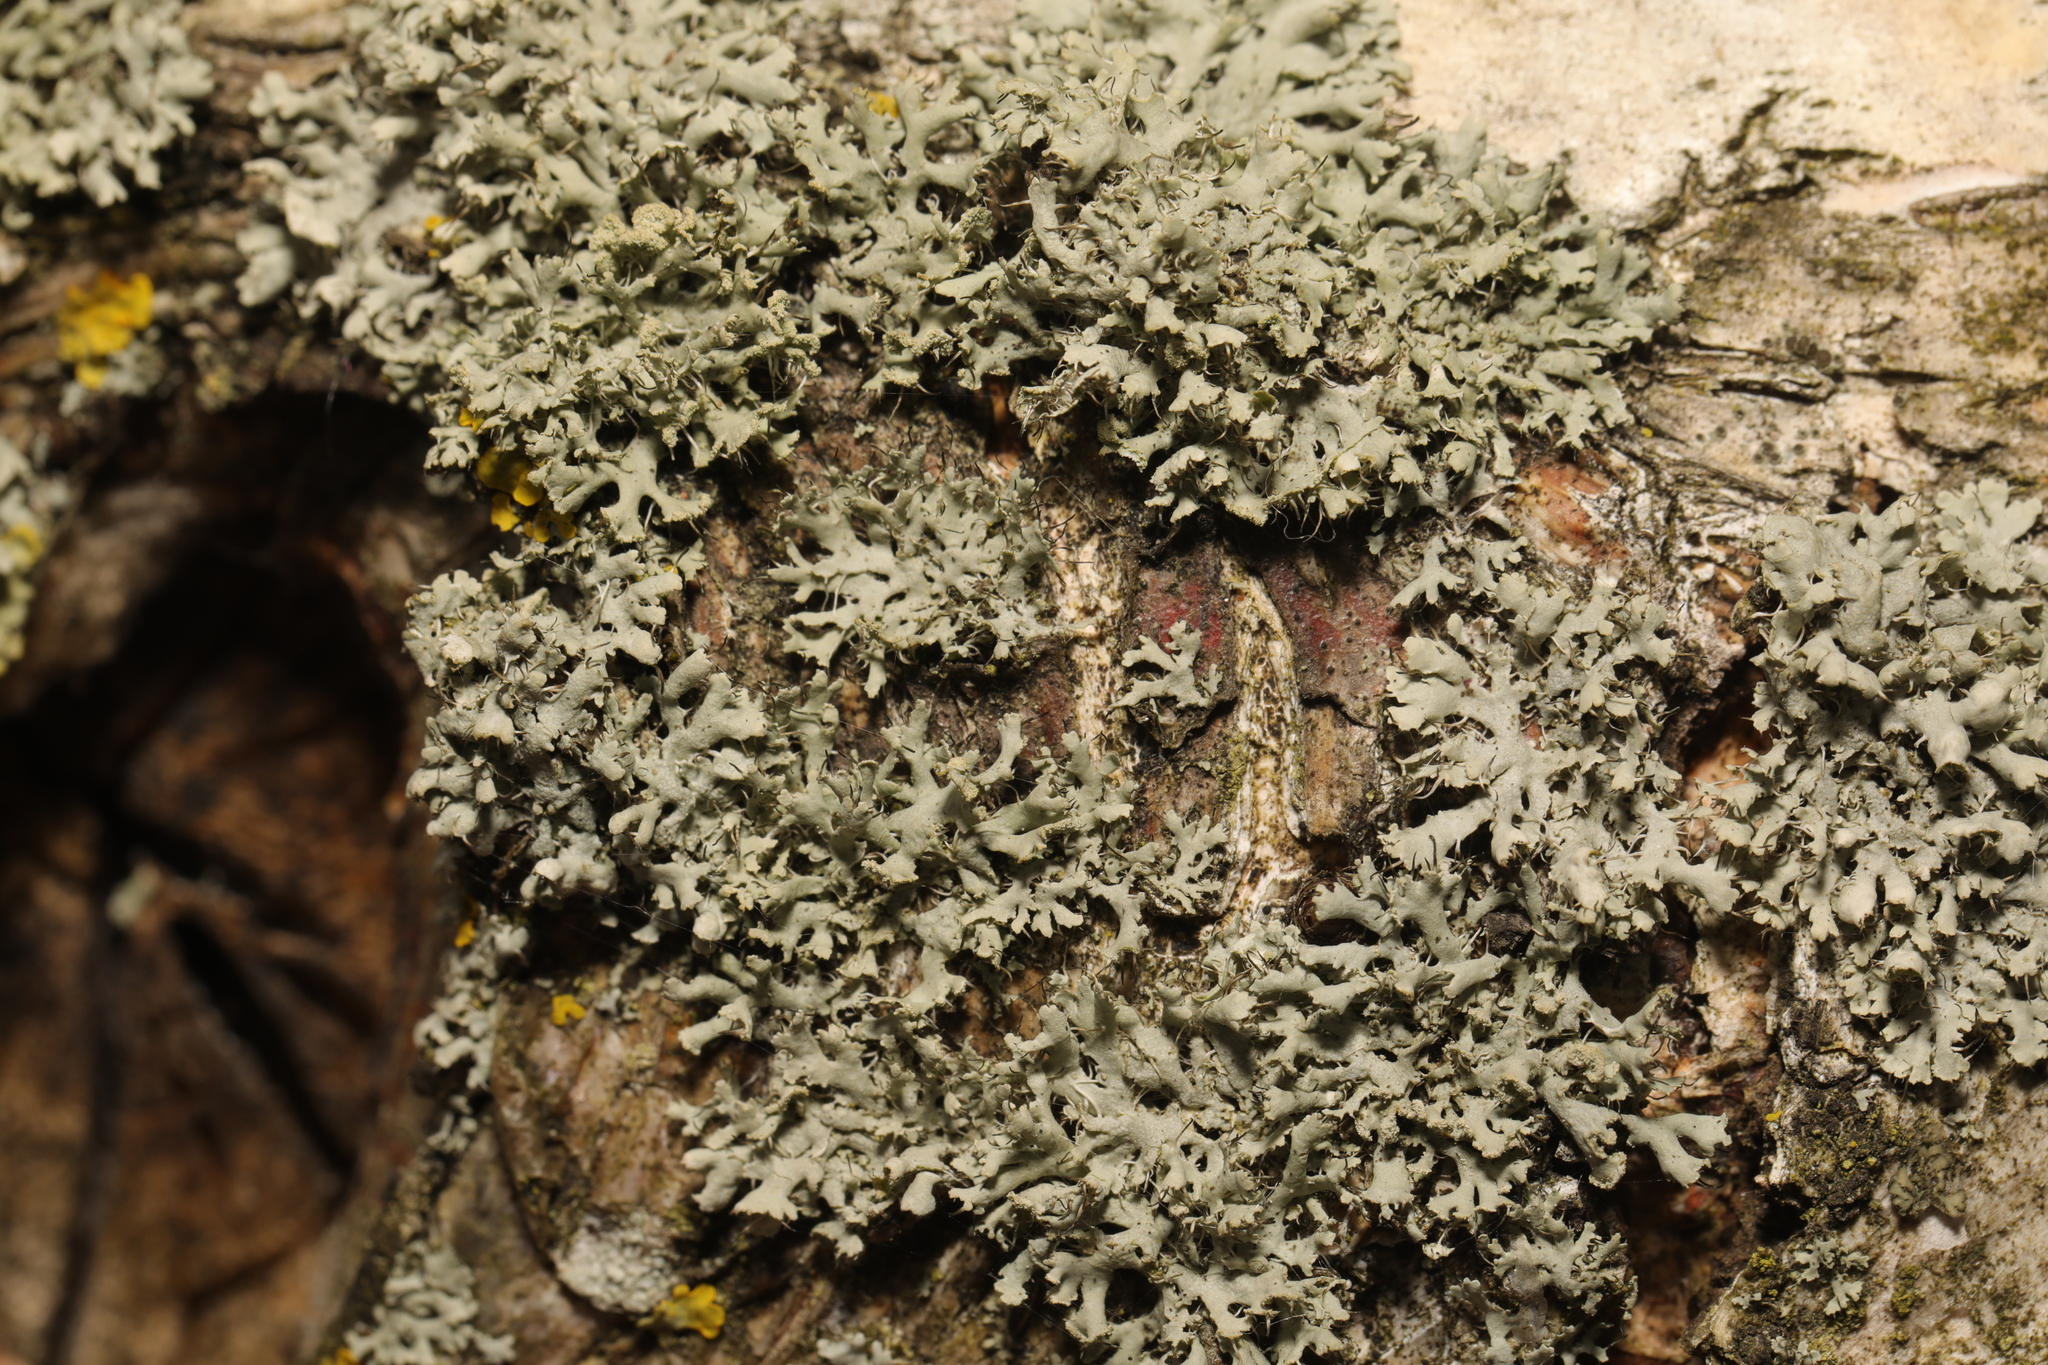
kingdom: Fungi
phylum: Ascomycota
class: Lecanoromycetes
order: Caliciales
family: Physciaceae
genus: Physcia
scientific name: Physcia tenella
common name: Fringed rosette lichen
